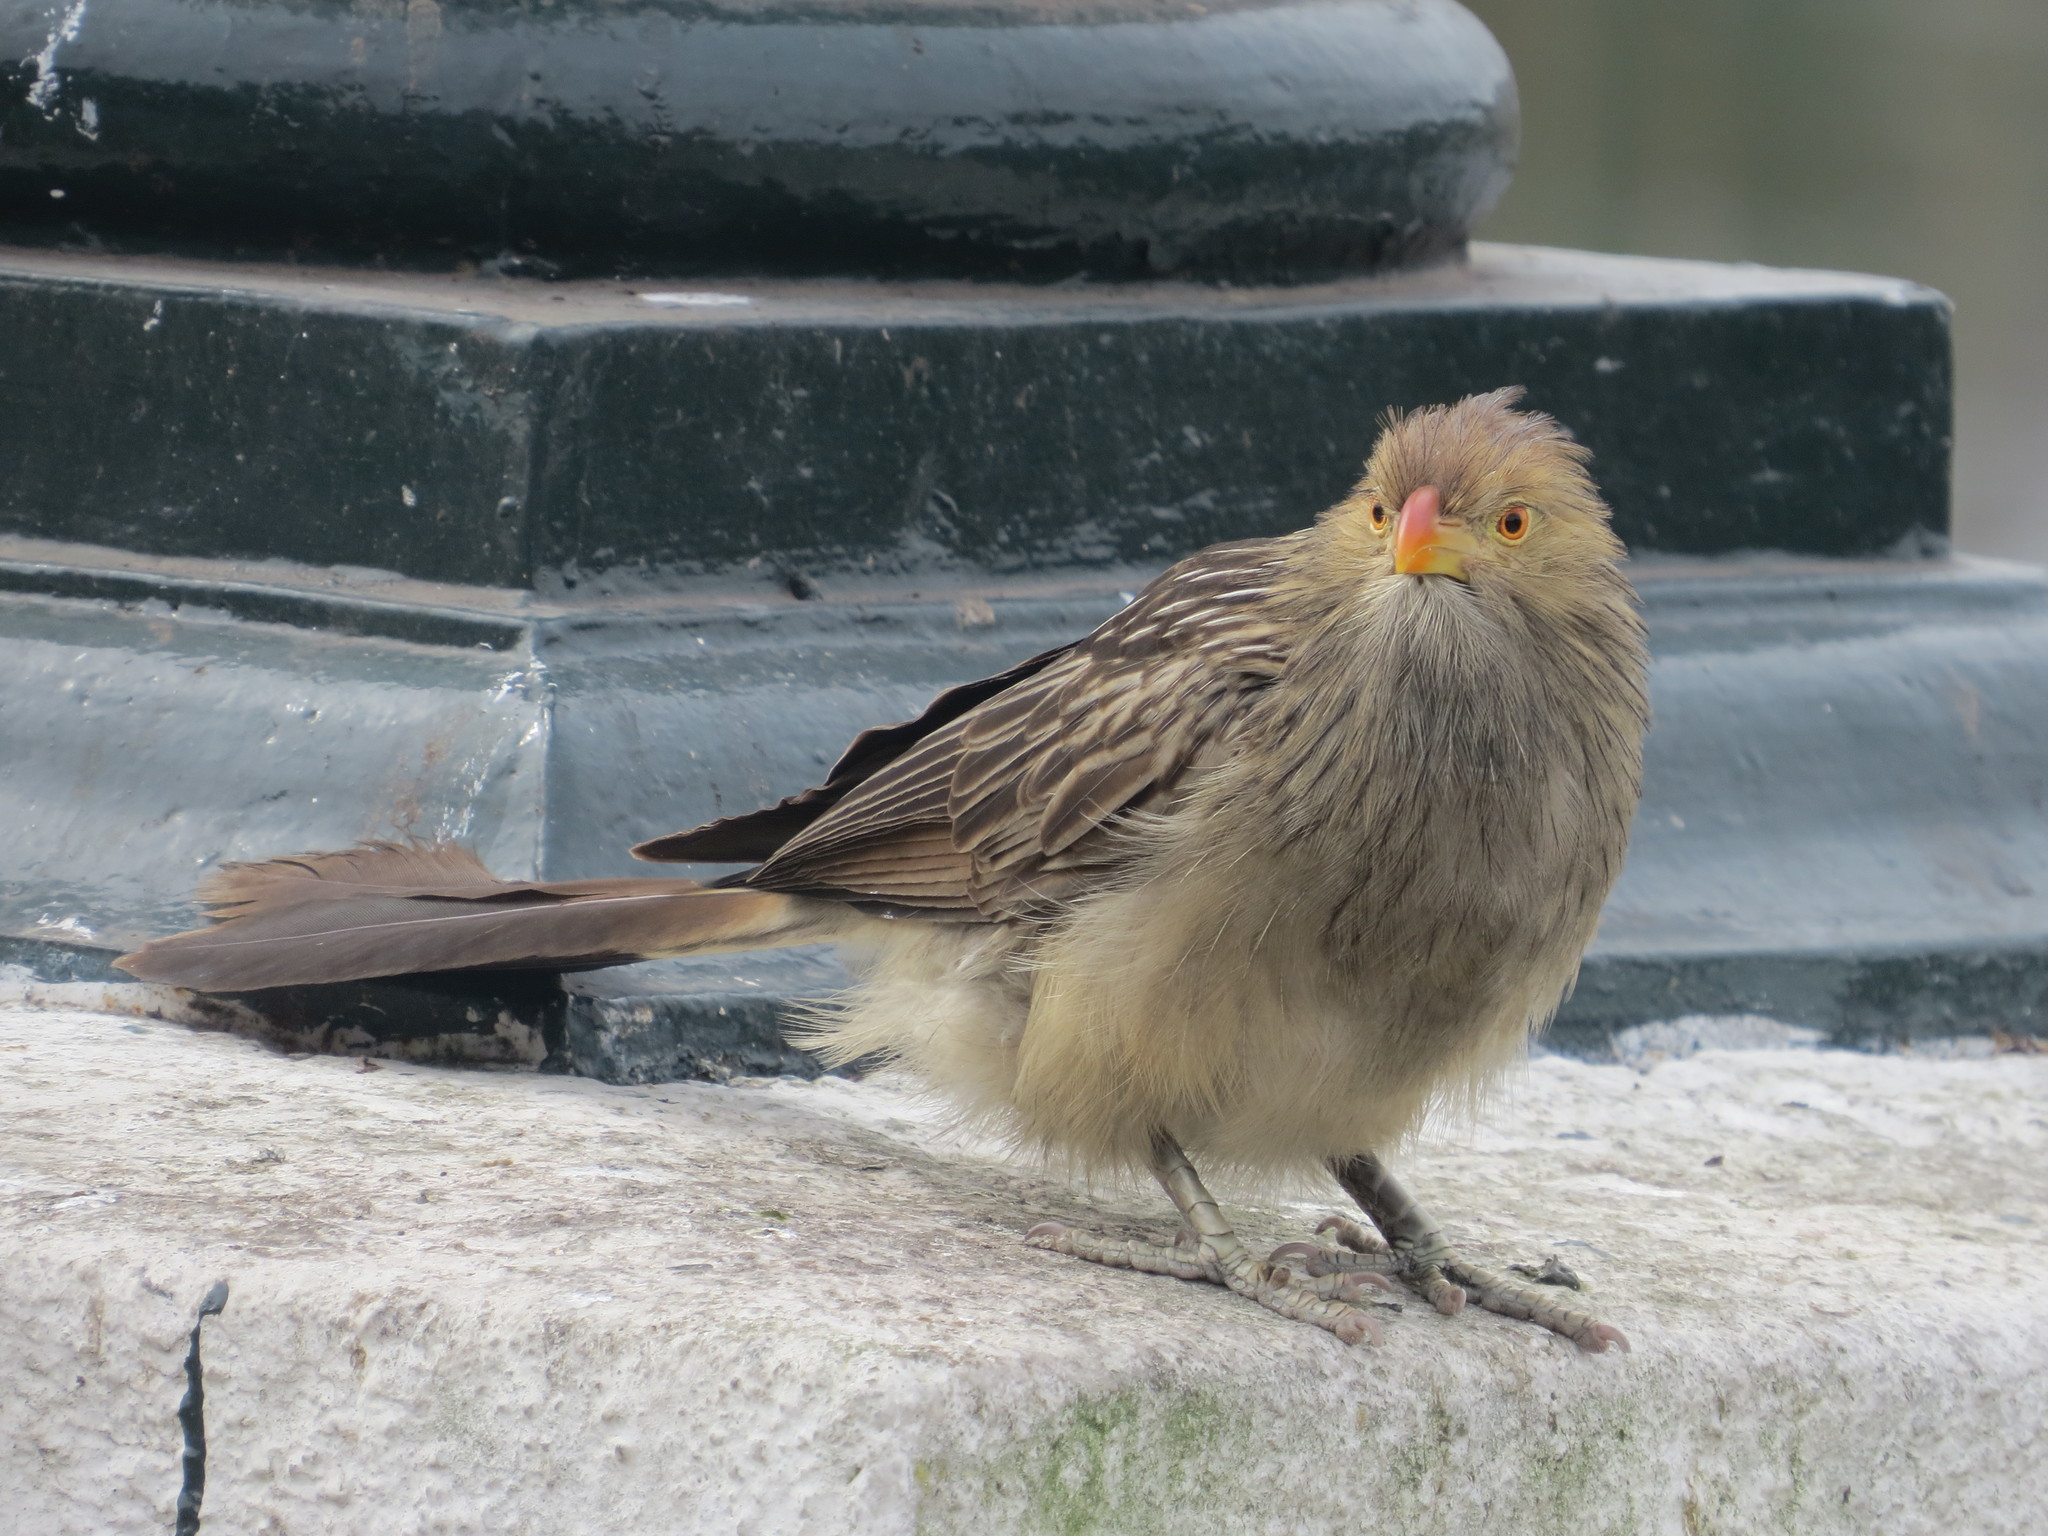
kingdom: Animalia
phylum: Chordata
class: Aves
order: Cuculiformes
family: Cuculidae
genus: Guira
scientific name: Guira guira
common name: Guira cuckoo
